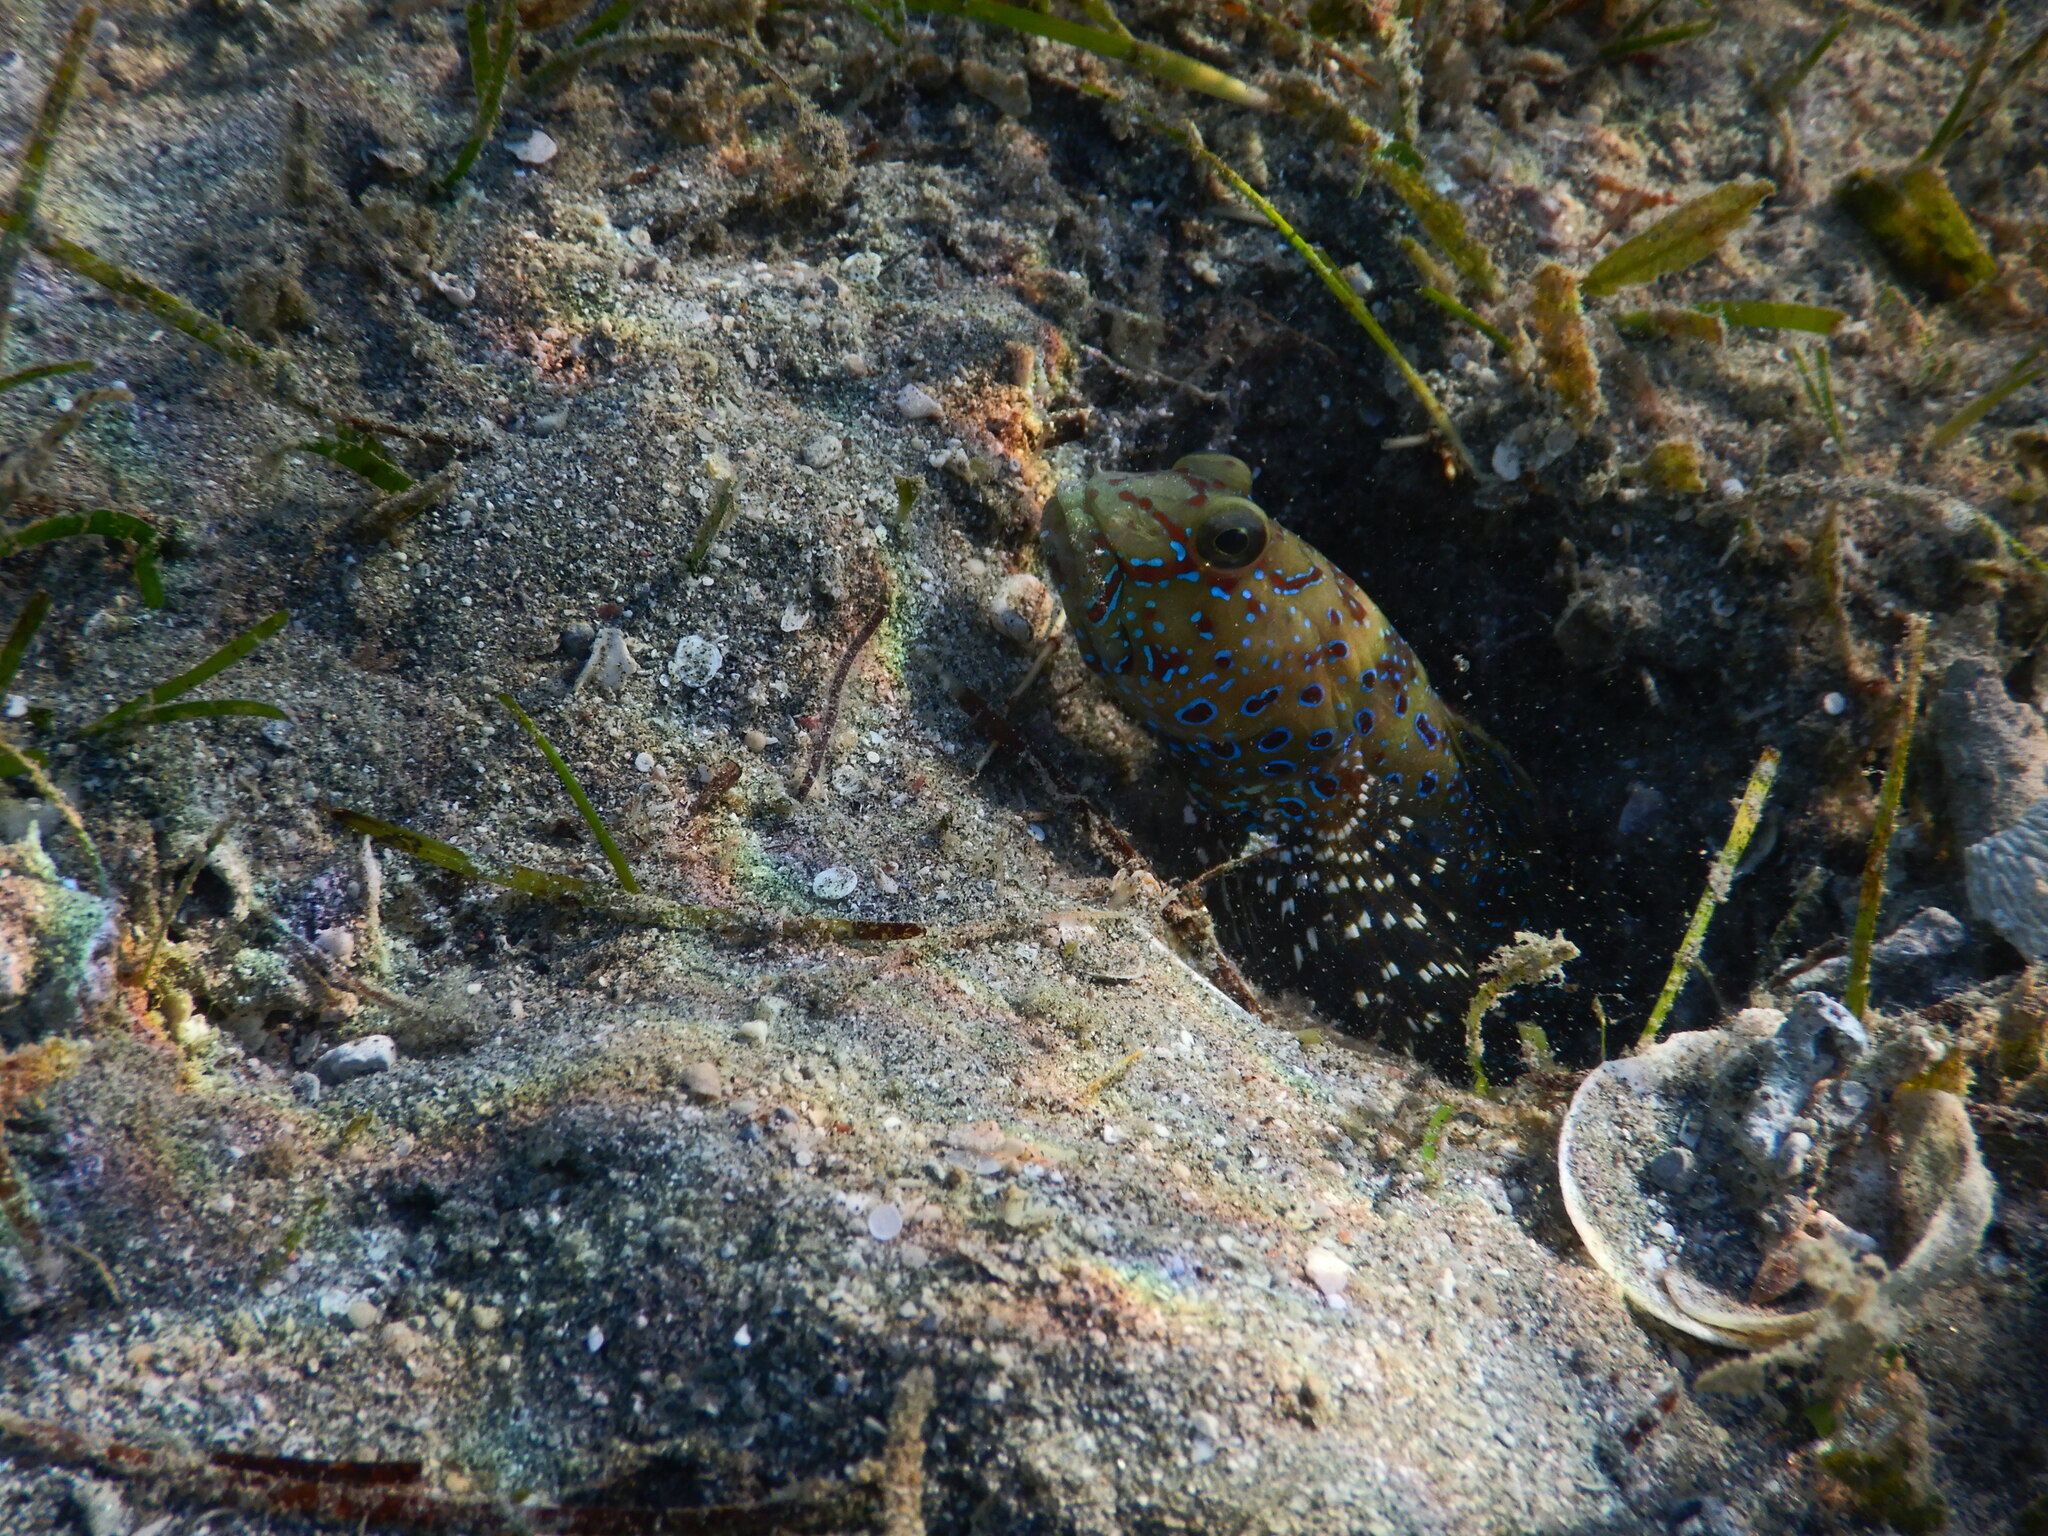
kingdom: Animalia
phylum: Chordata
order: Perciformes
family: Gobiidae
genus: Cryptocentrus
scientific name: Cryptocentrus caeruleopunctatus
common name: Blue-and-red-spotted goby
